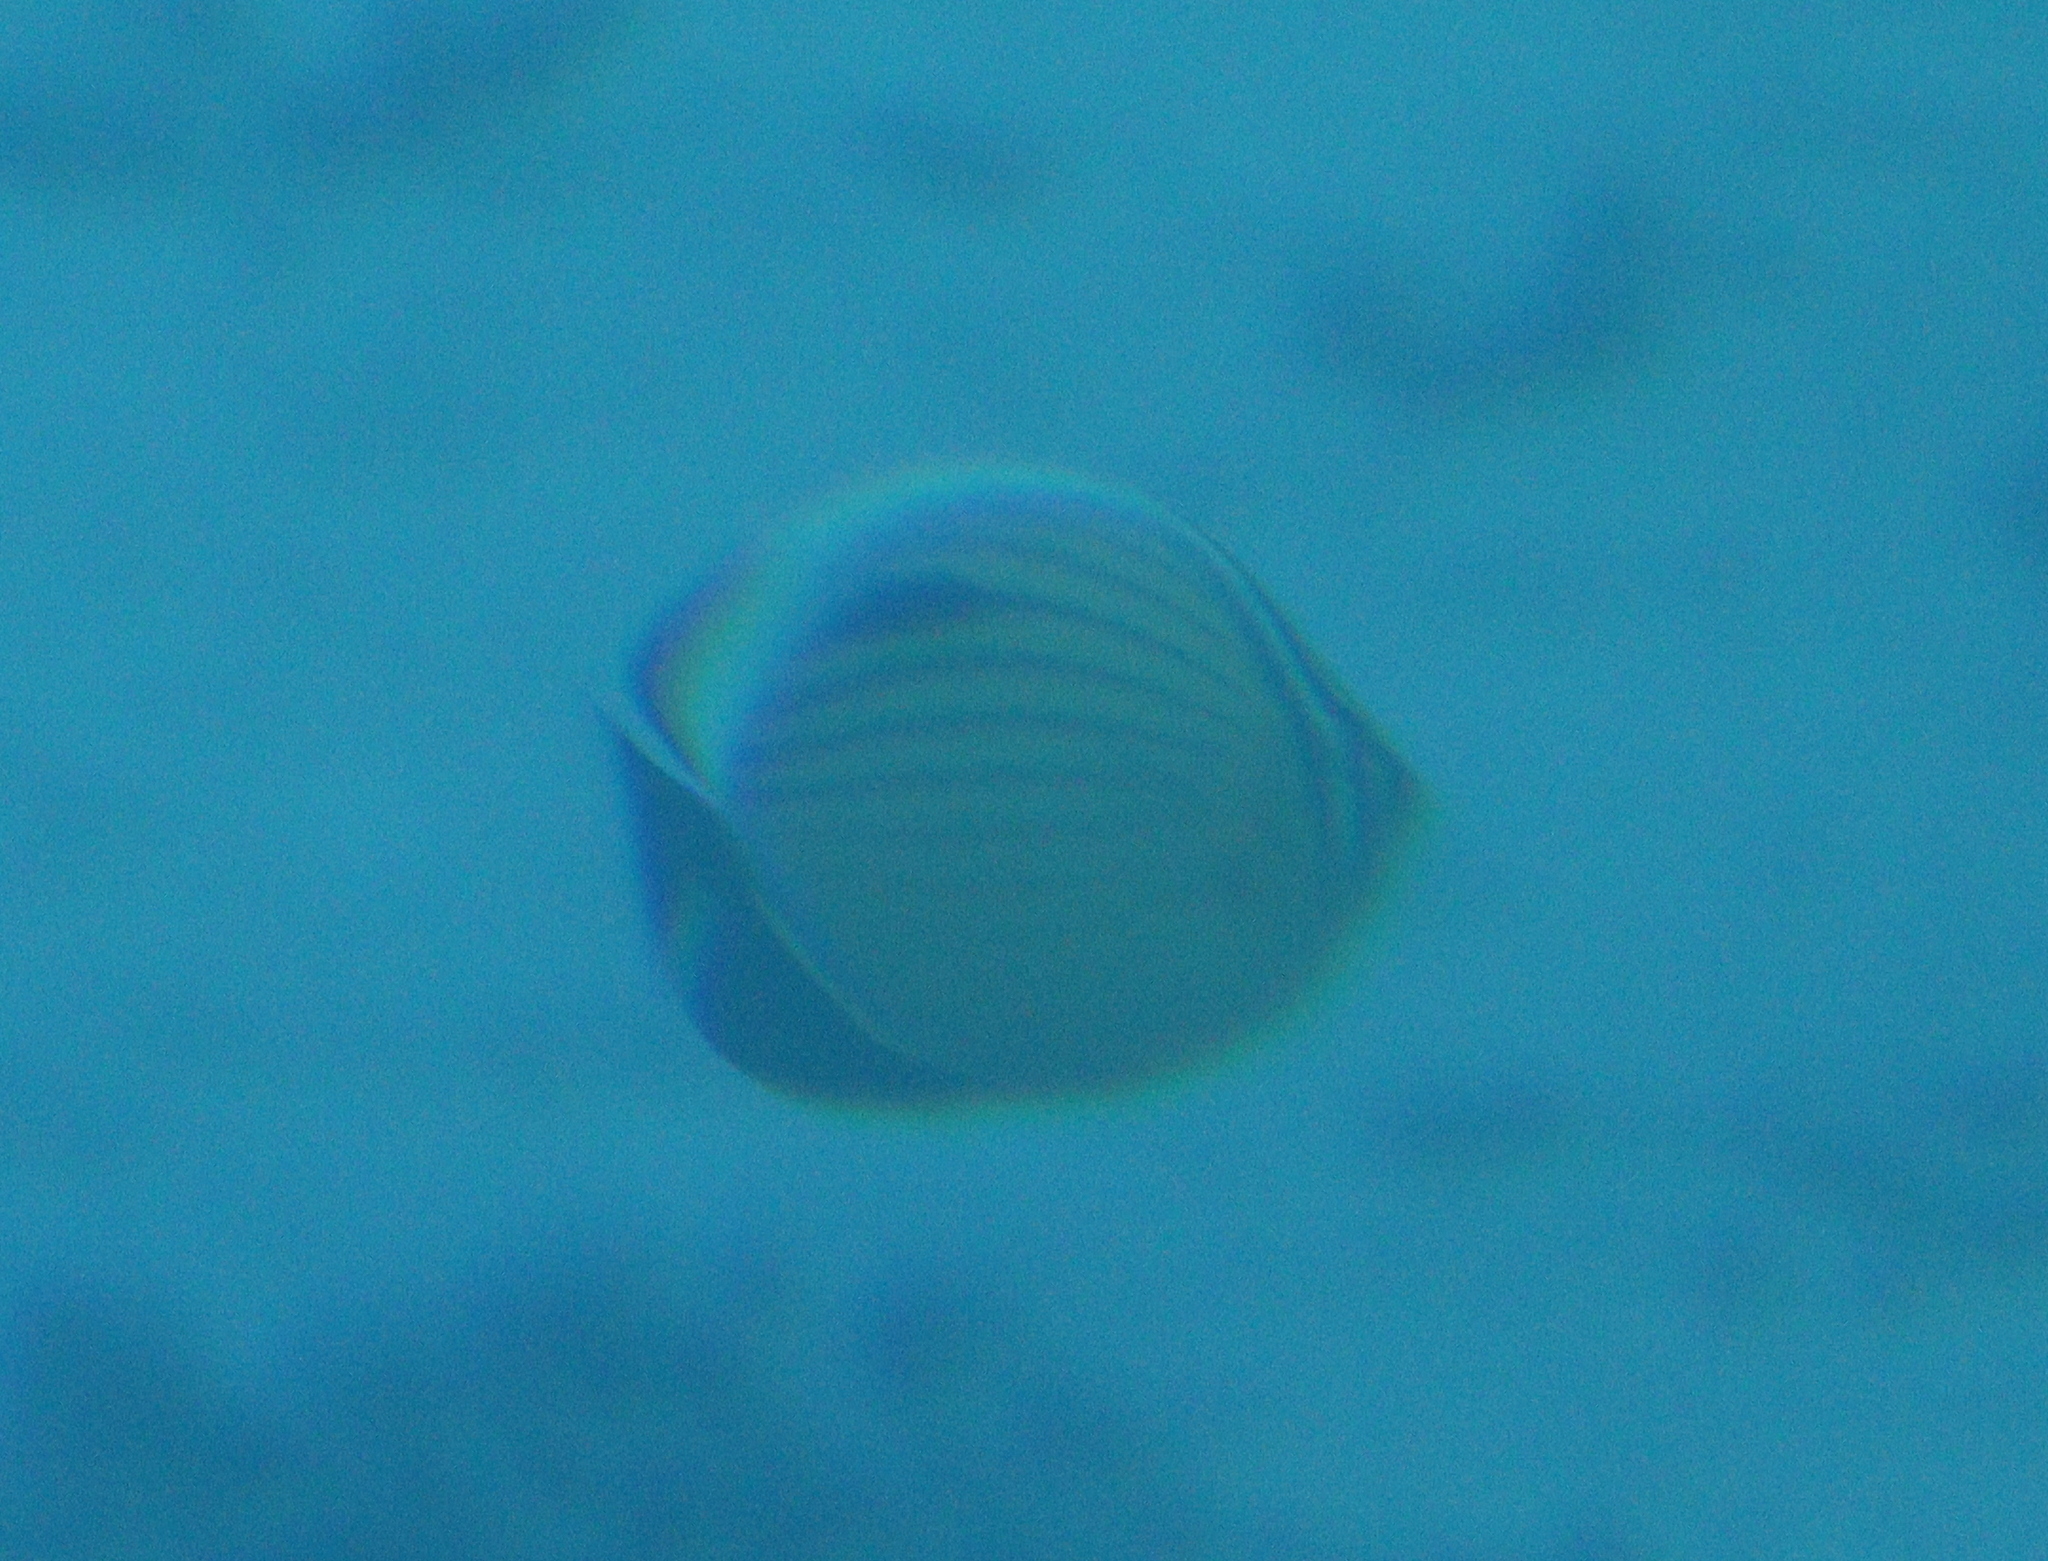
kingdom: Animalia
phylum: Chordata
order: Perciformes
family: Chaetodontidae
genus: Chaetodon
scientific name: Chaetodon austriacus
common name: Exquisite butterflyfish
